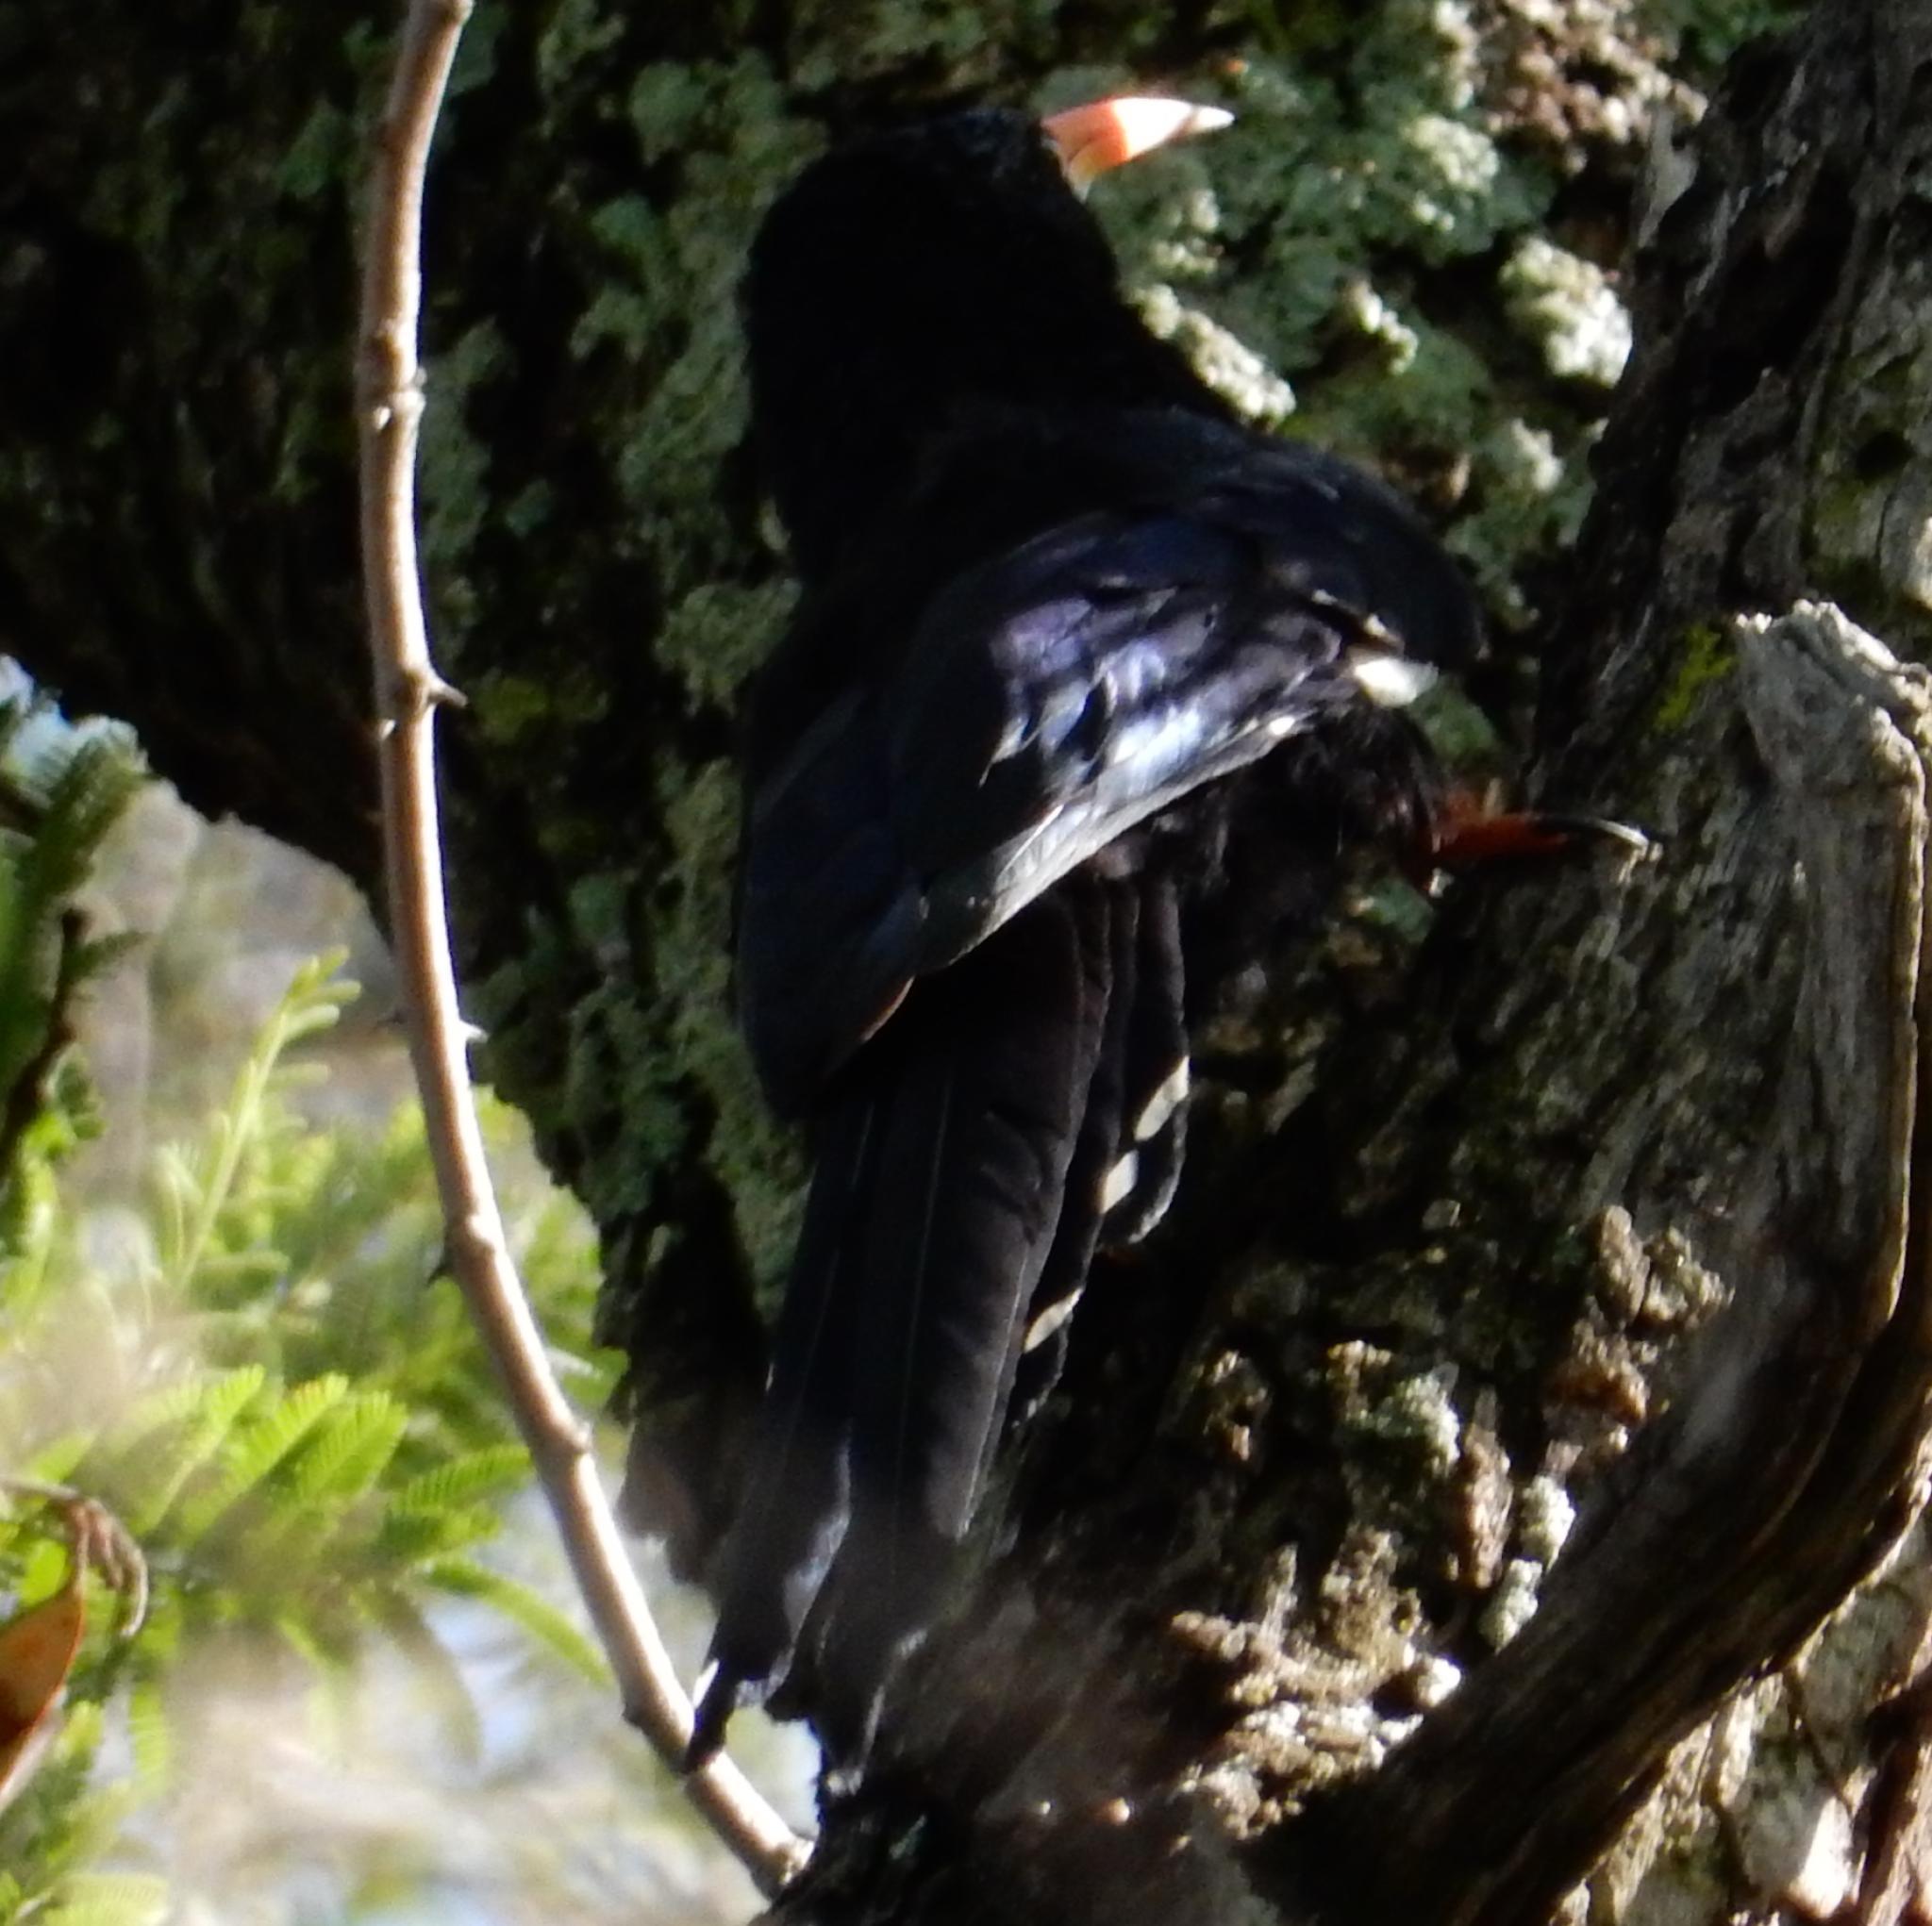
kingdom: Animalia
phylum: Chordata
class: Aves
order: Bucerotiformes
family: Phoeniculidae
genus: Phoeniculus
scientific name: Phoeniculus purpureus
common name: Green woodhoopoe
